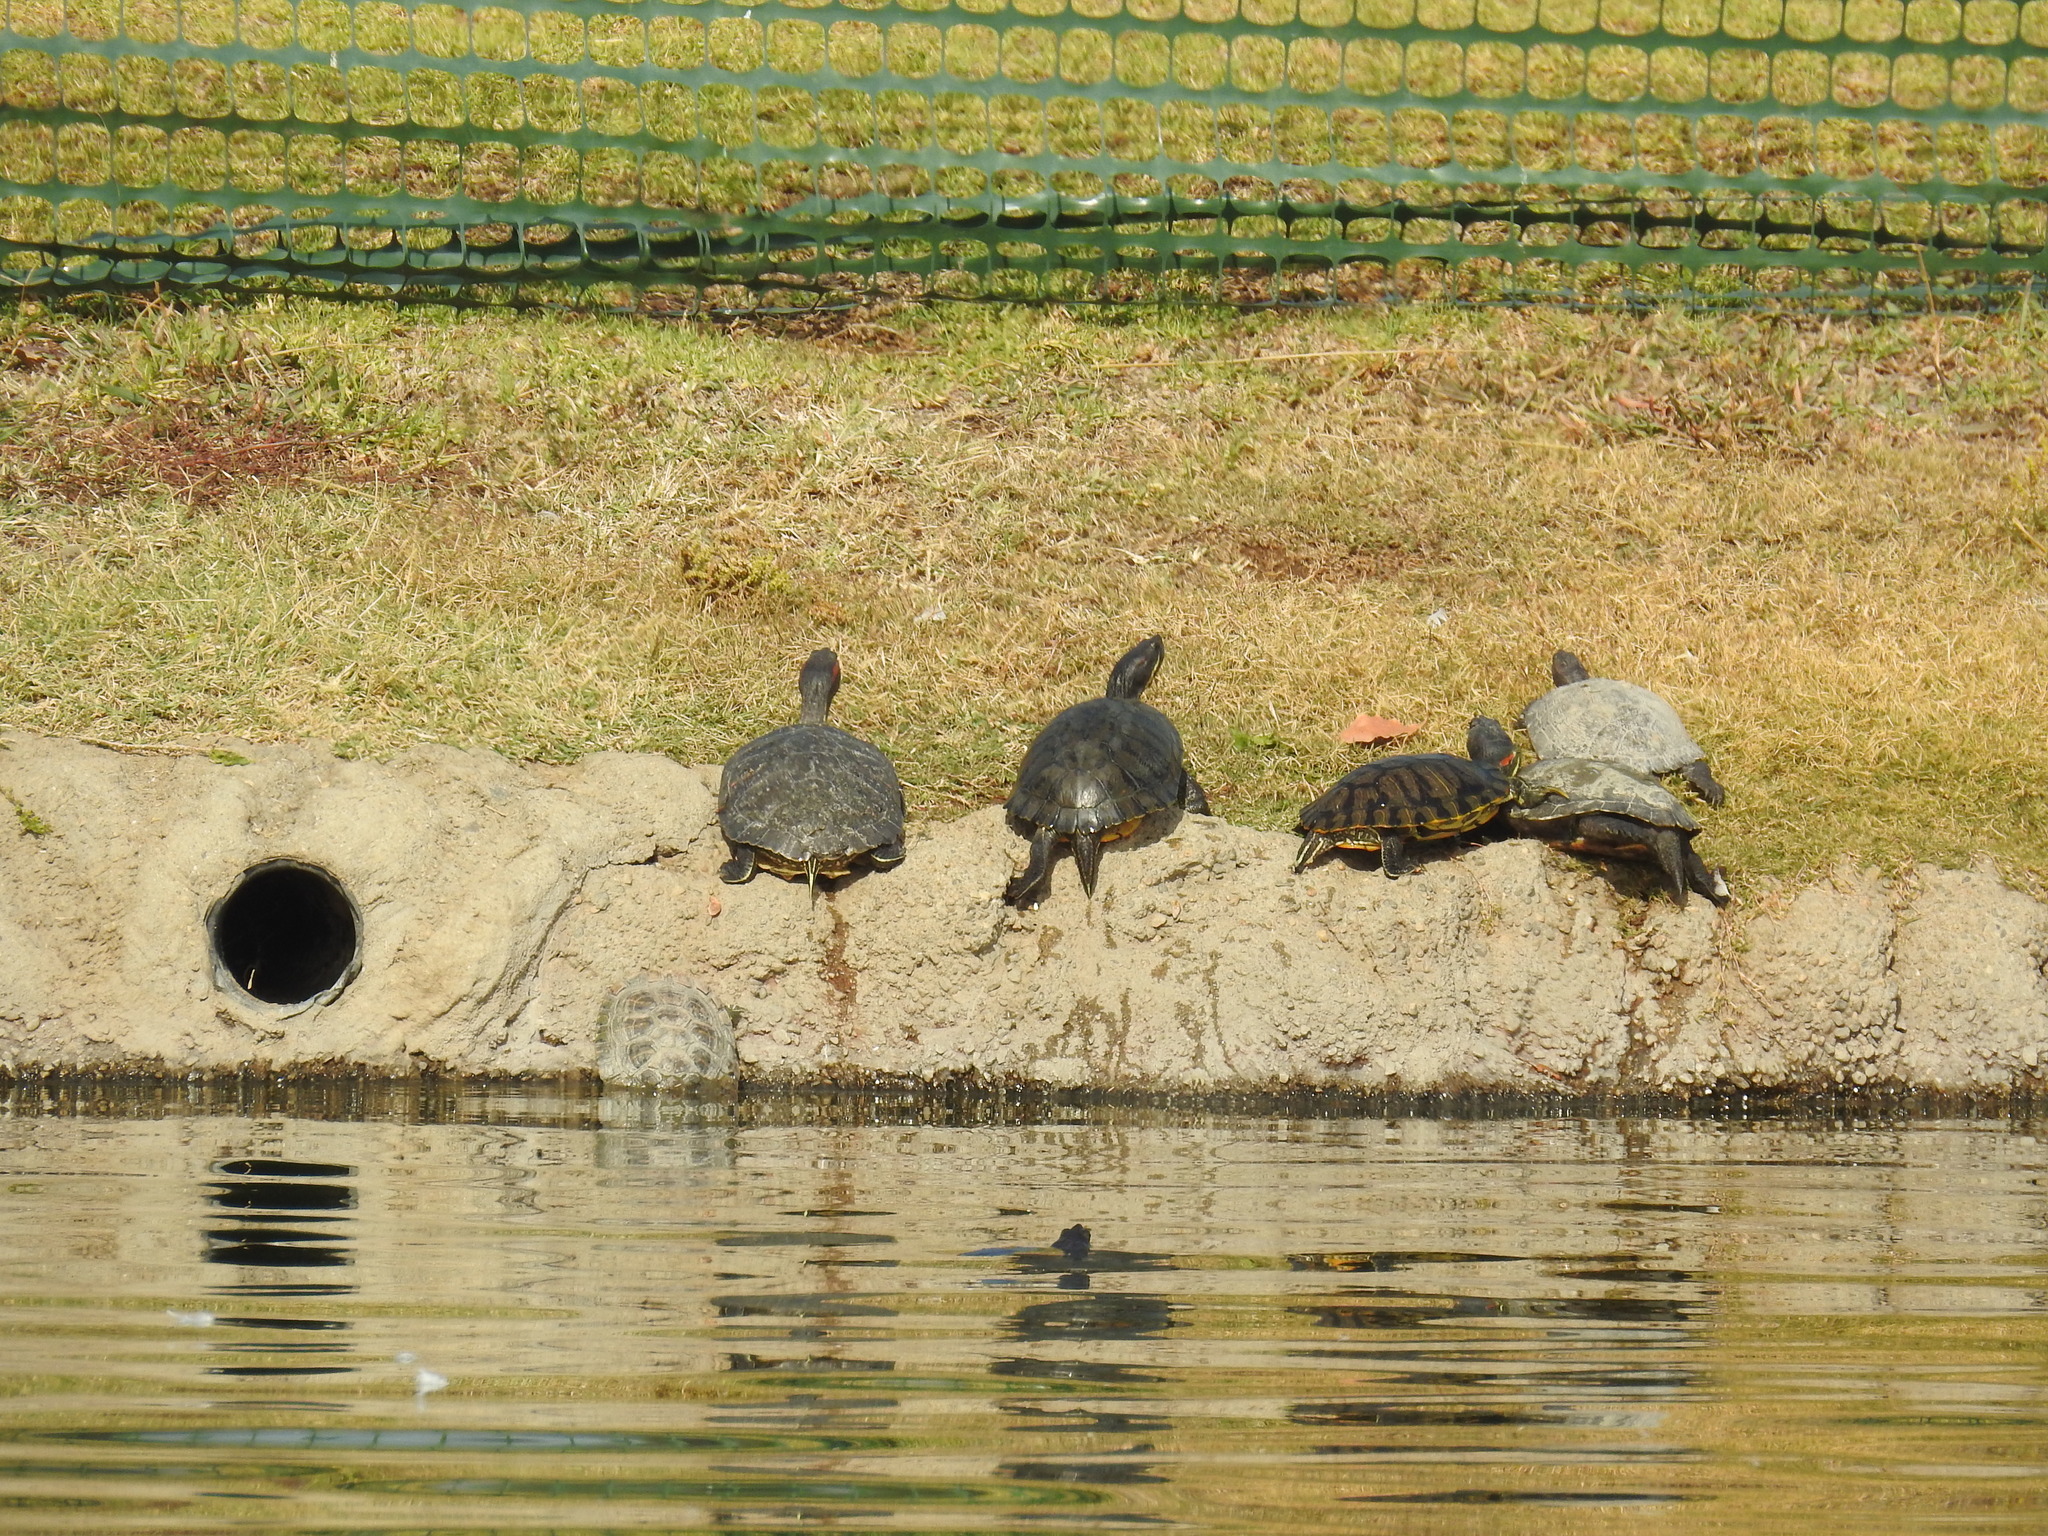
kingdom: Animalia
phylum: Chordata
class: Testudines
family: Emydidae
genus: Trachemys
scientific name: Trachemys scripta
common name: Slider
